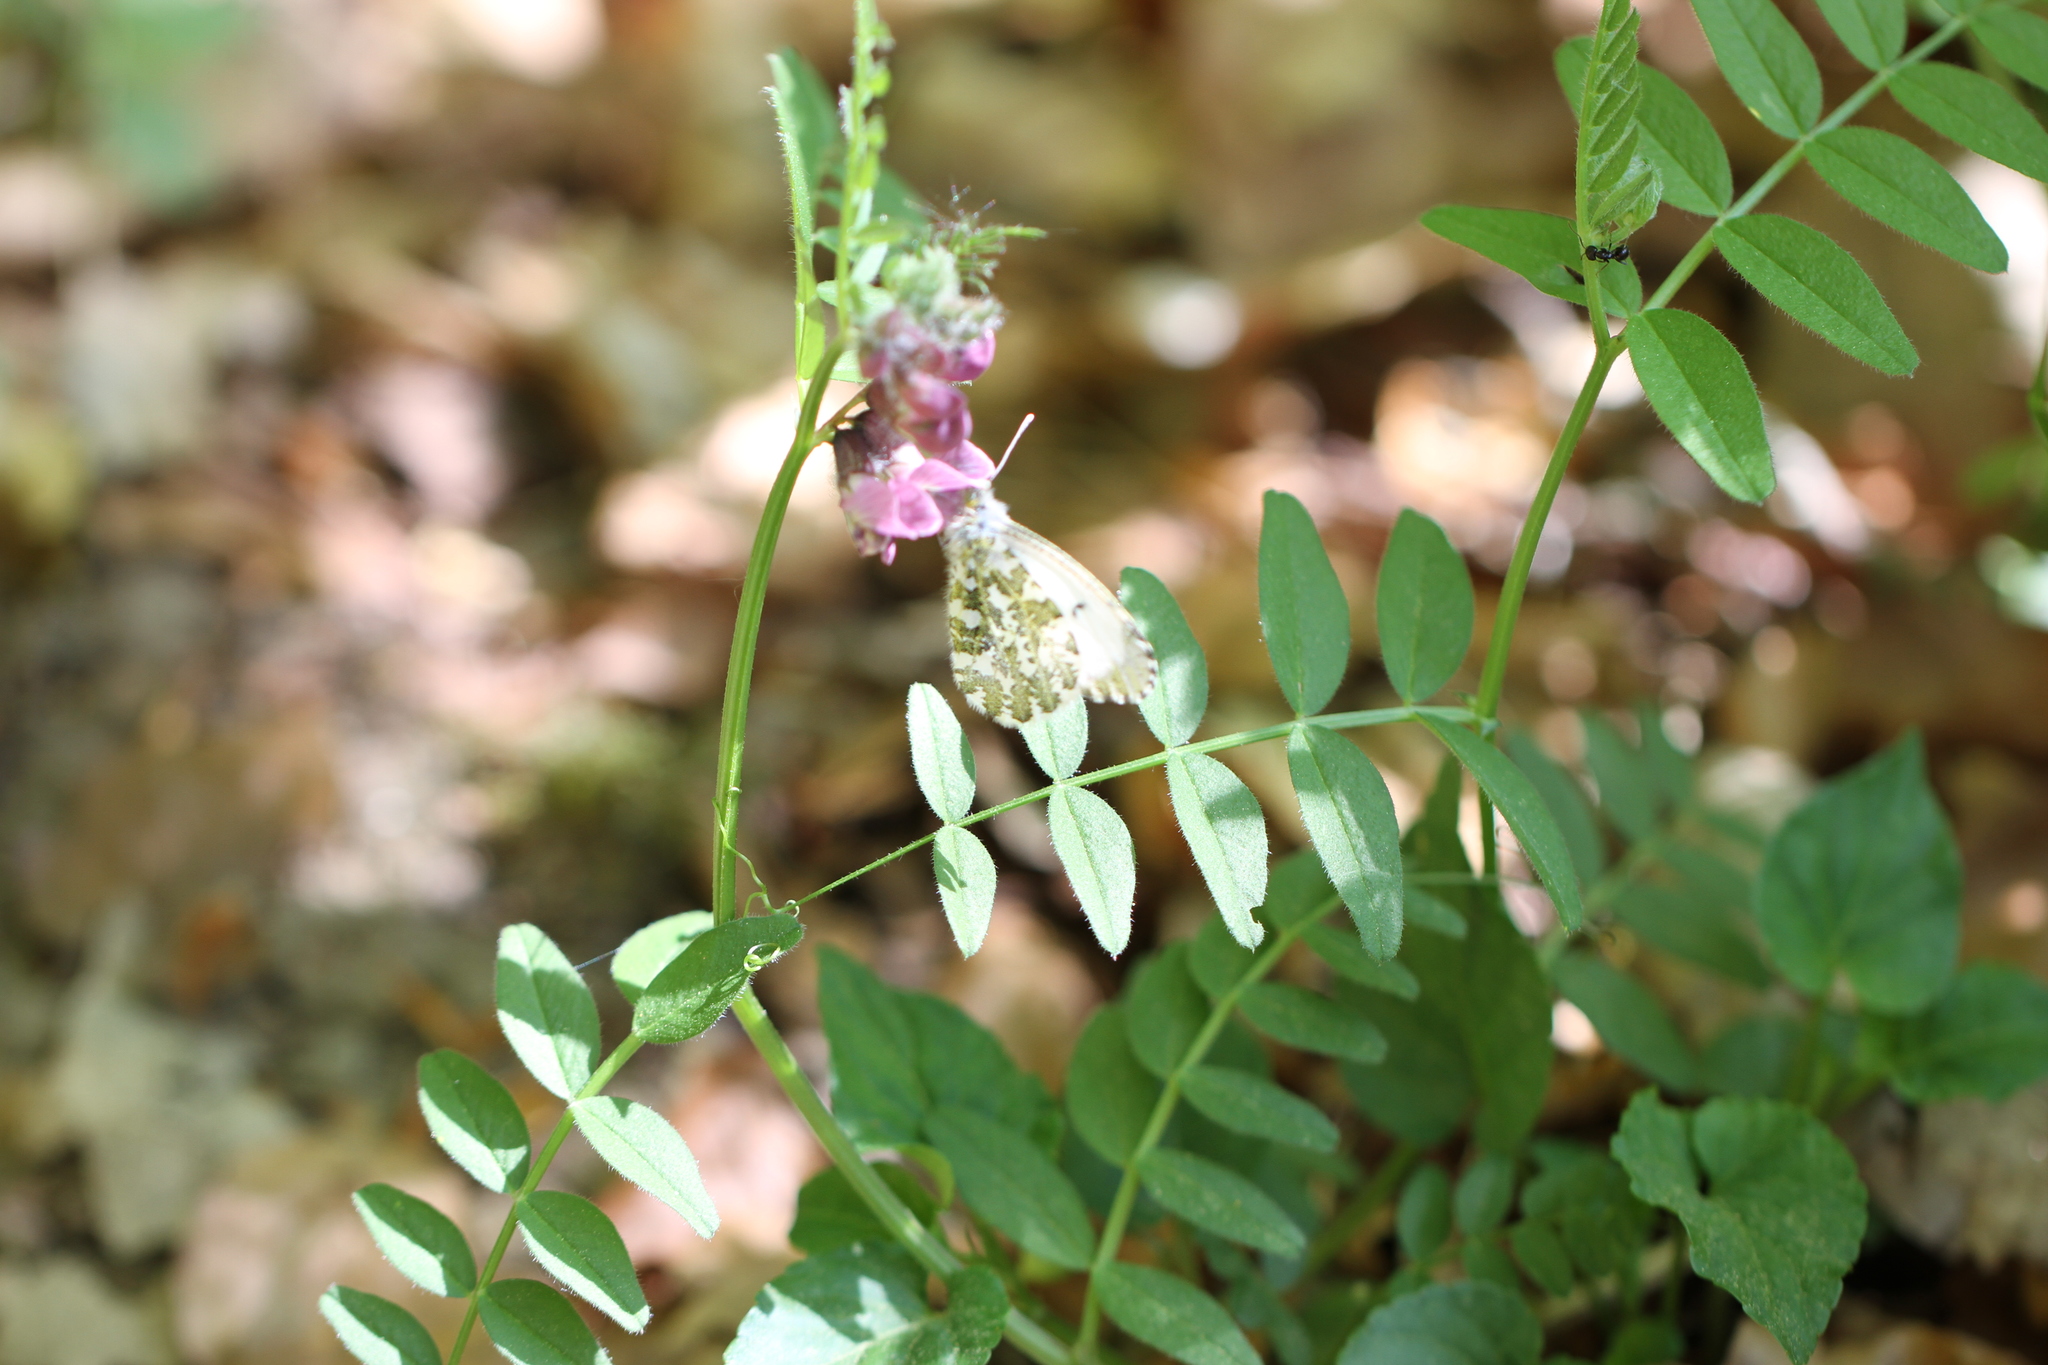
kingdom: Animalia
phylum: Arthropoda
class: Insecta
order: Lepidoptera
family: Pieridae
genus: Anthocharis
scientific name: Anthocharis cardamines
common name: Orange-tip
